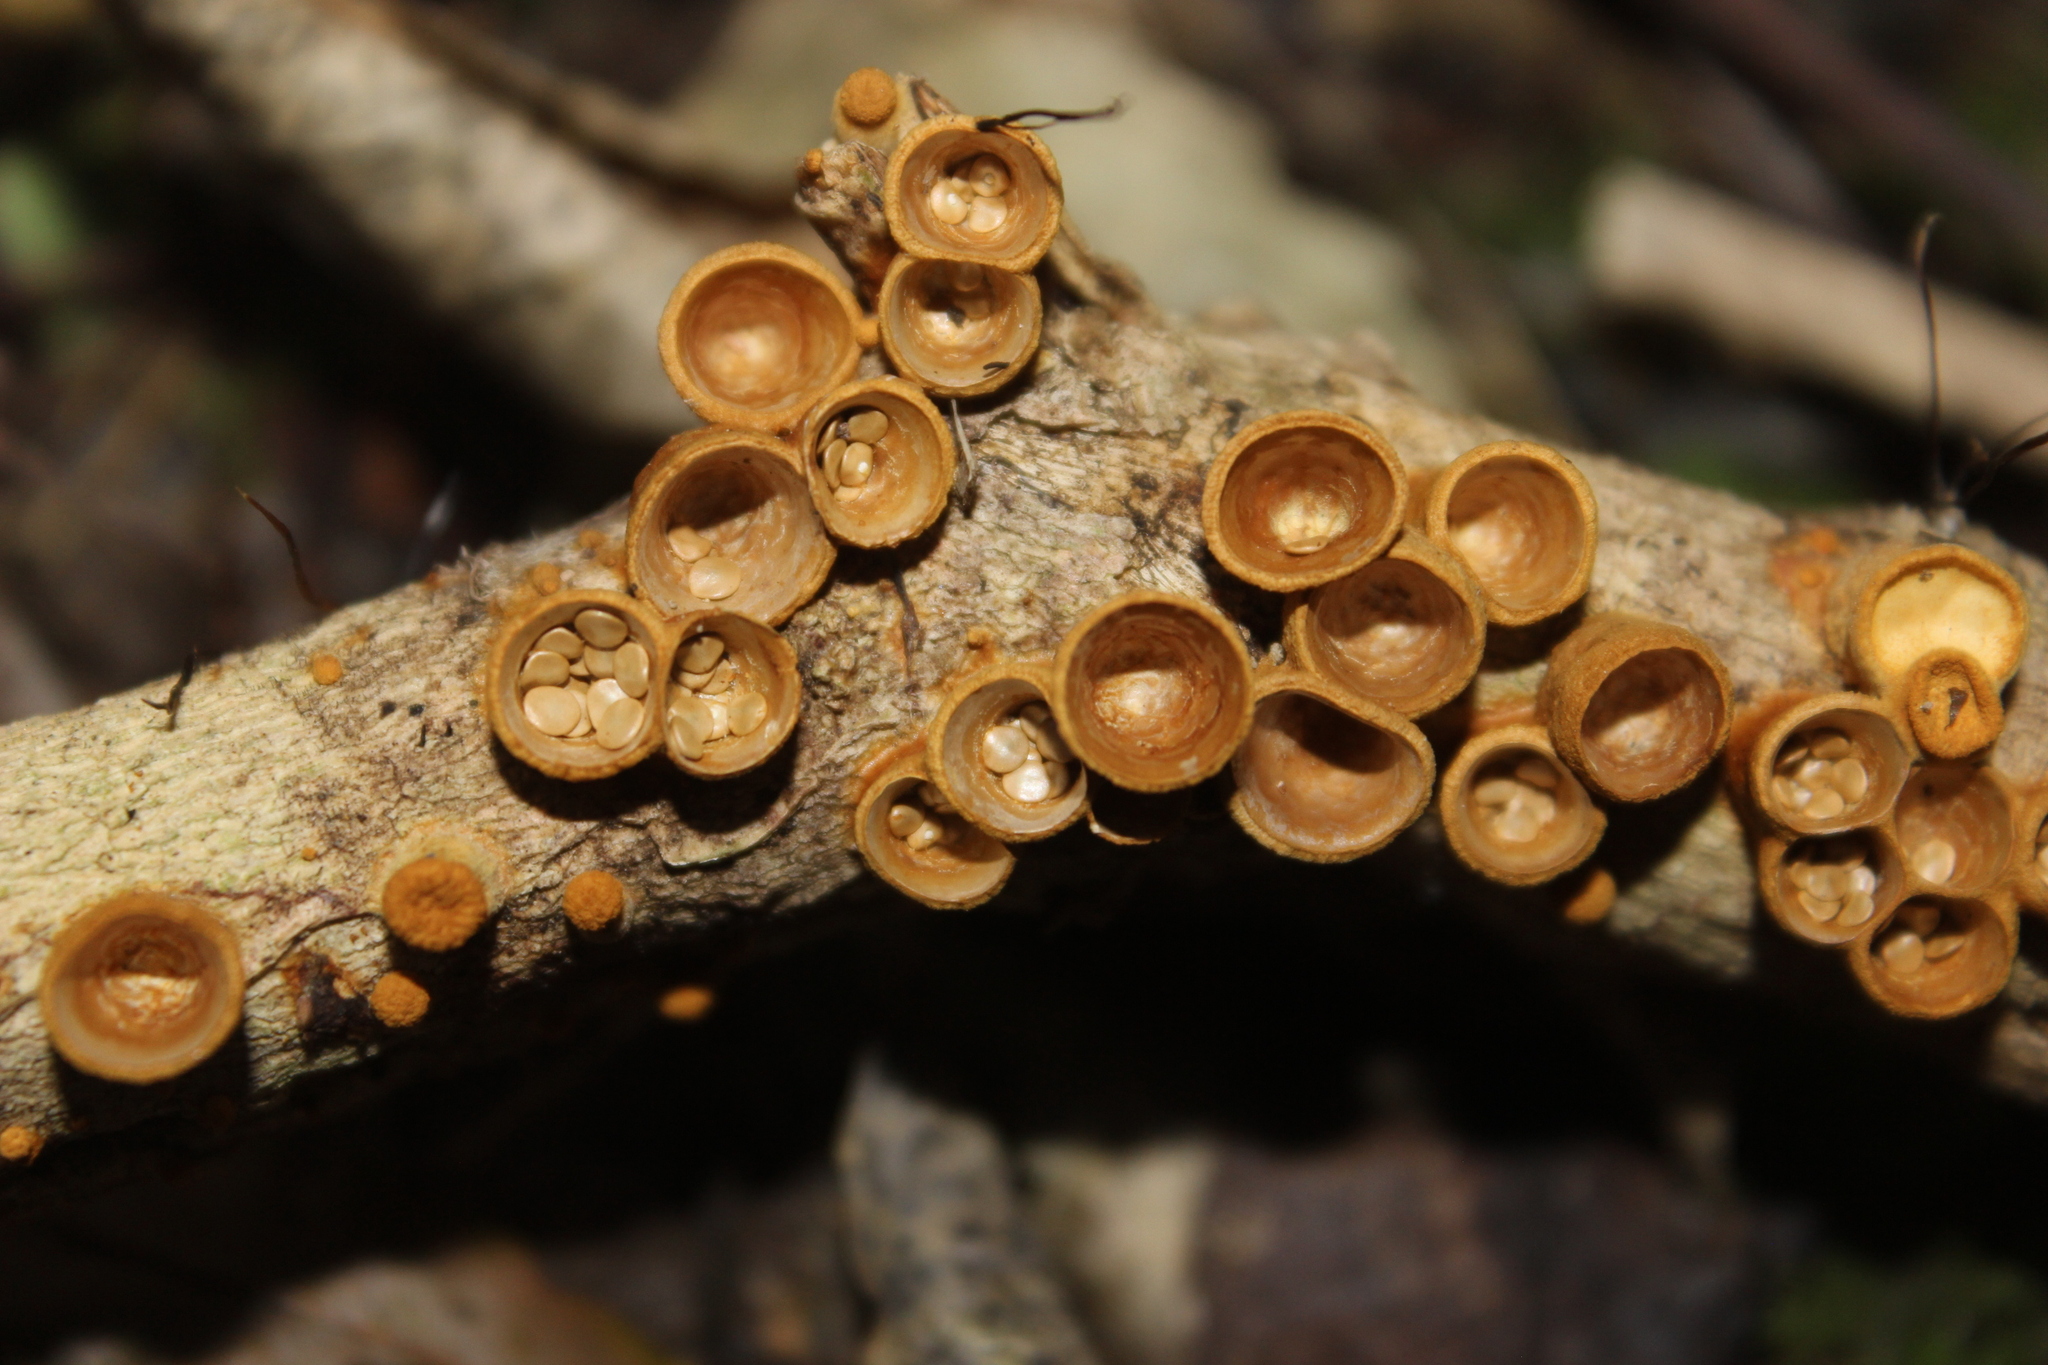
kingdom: Fungi
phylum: Basidiomycota
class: Agaricomycetes
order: Agaricales
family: Nidulariaceae
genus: Crucibulum
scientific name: Crucibulum simile
